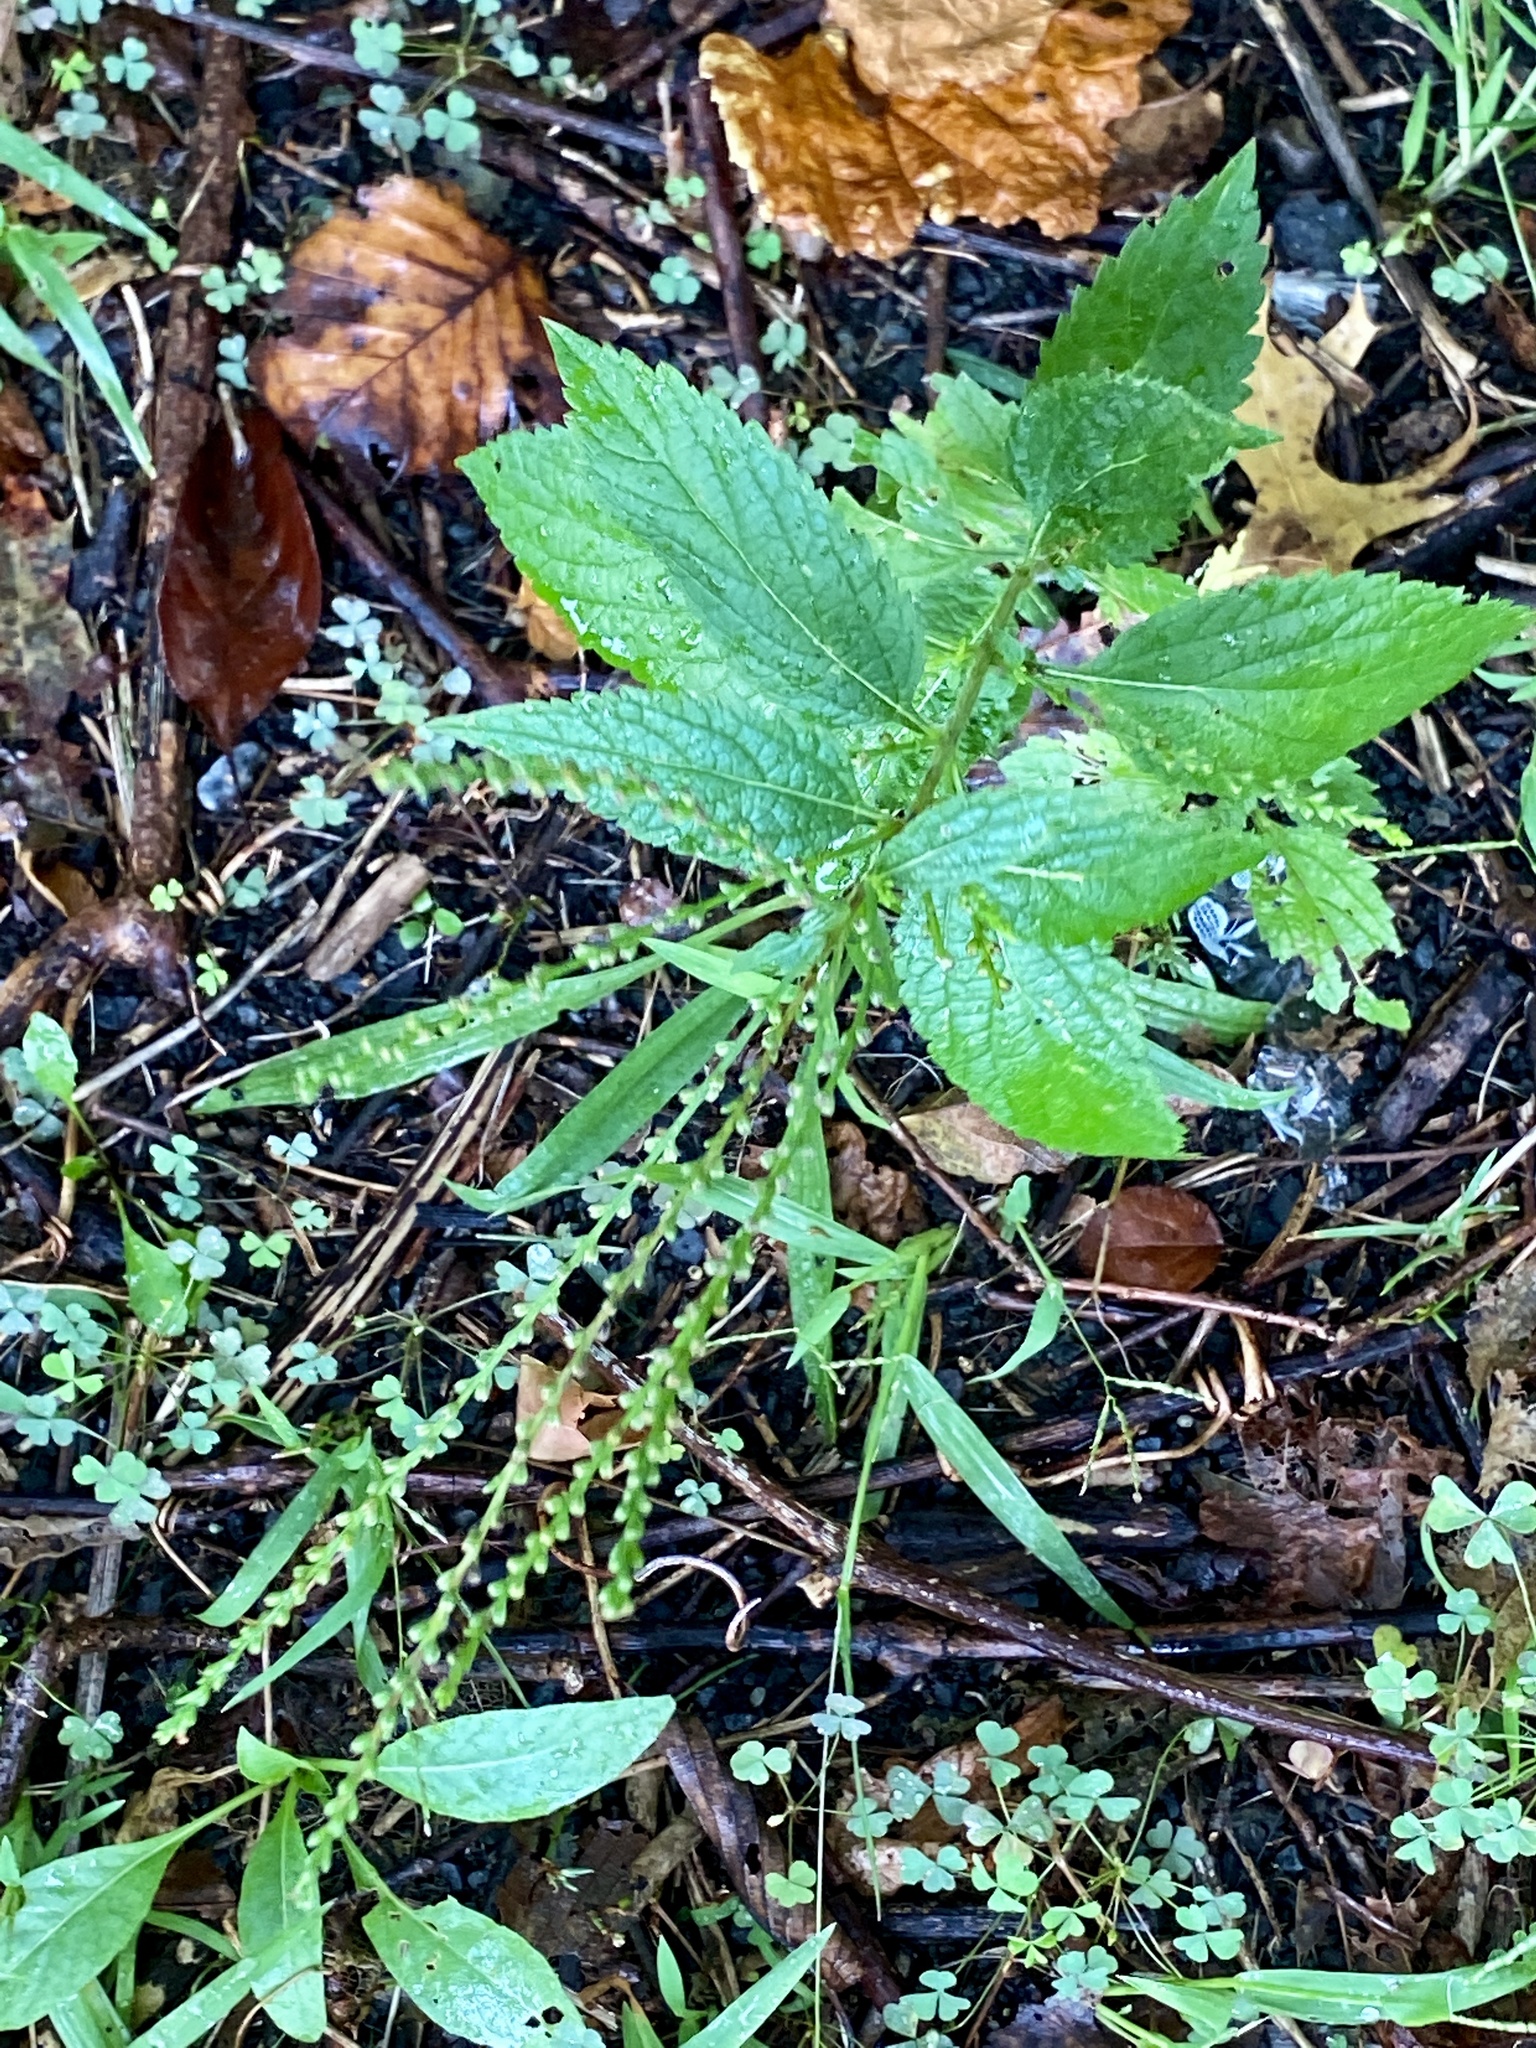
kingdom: Plantae
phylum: Tracheophyta
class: Magnoliopsida
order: Lamiales
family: Verbenaceae
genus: Verbena
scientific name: Verbena urticifolia
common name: Nettle-leaved vervain
